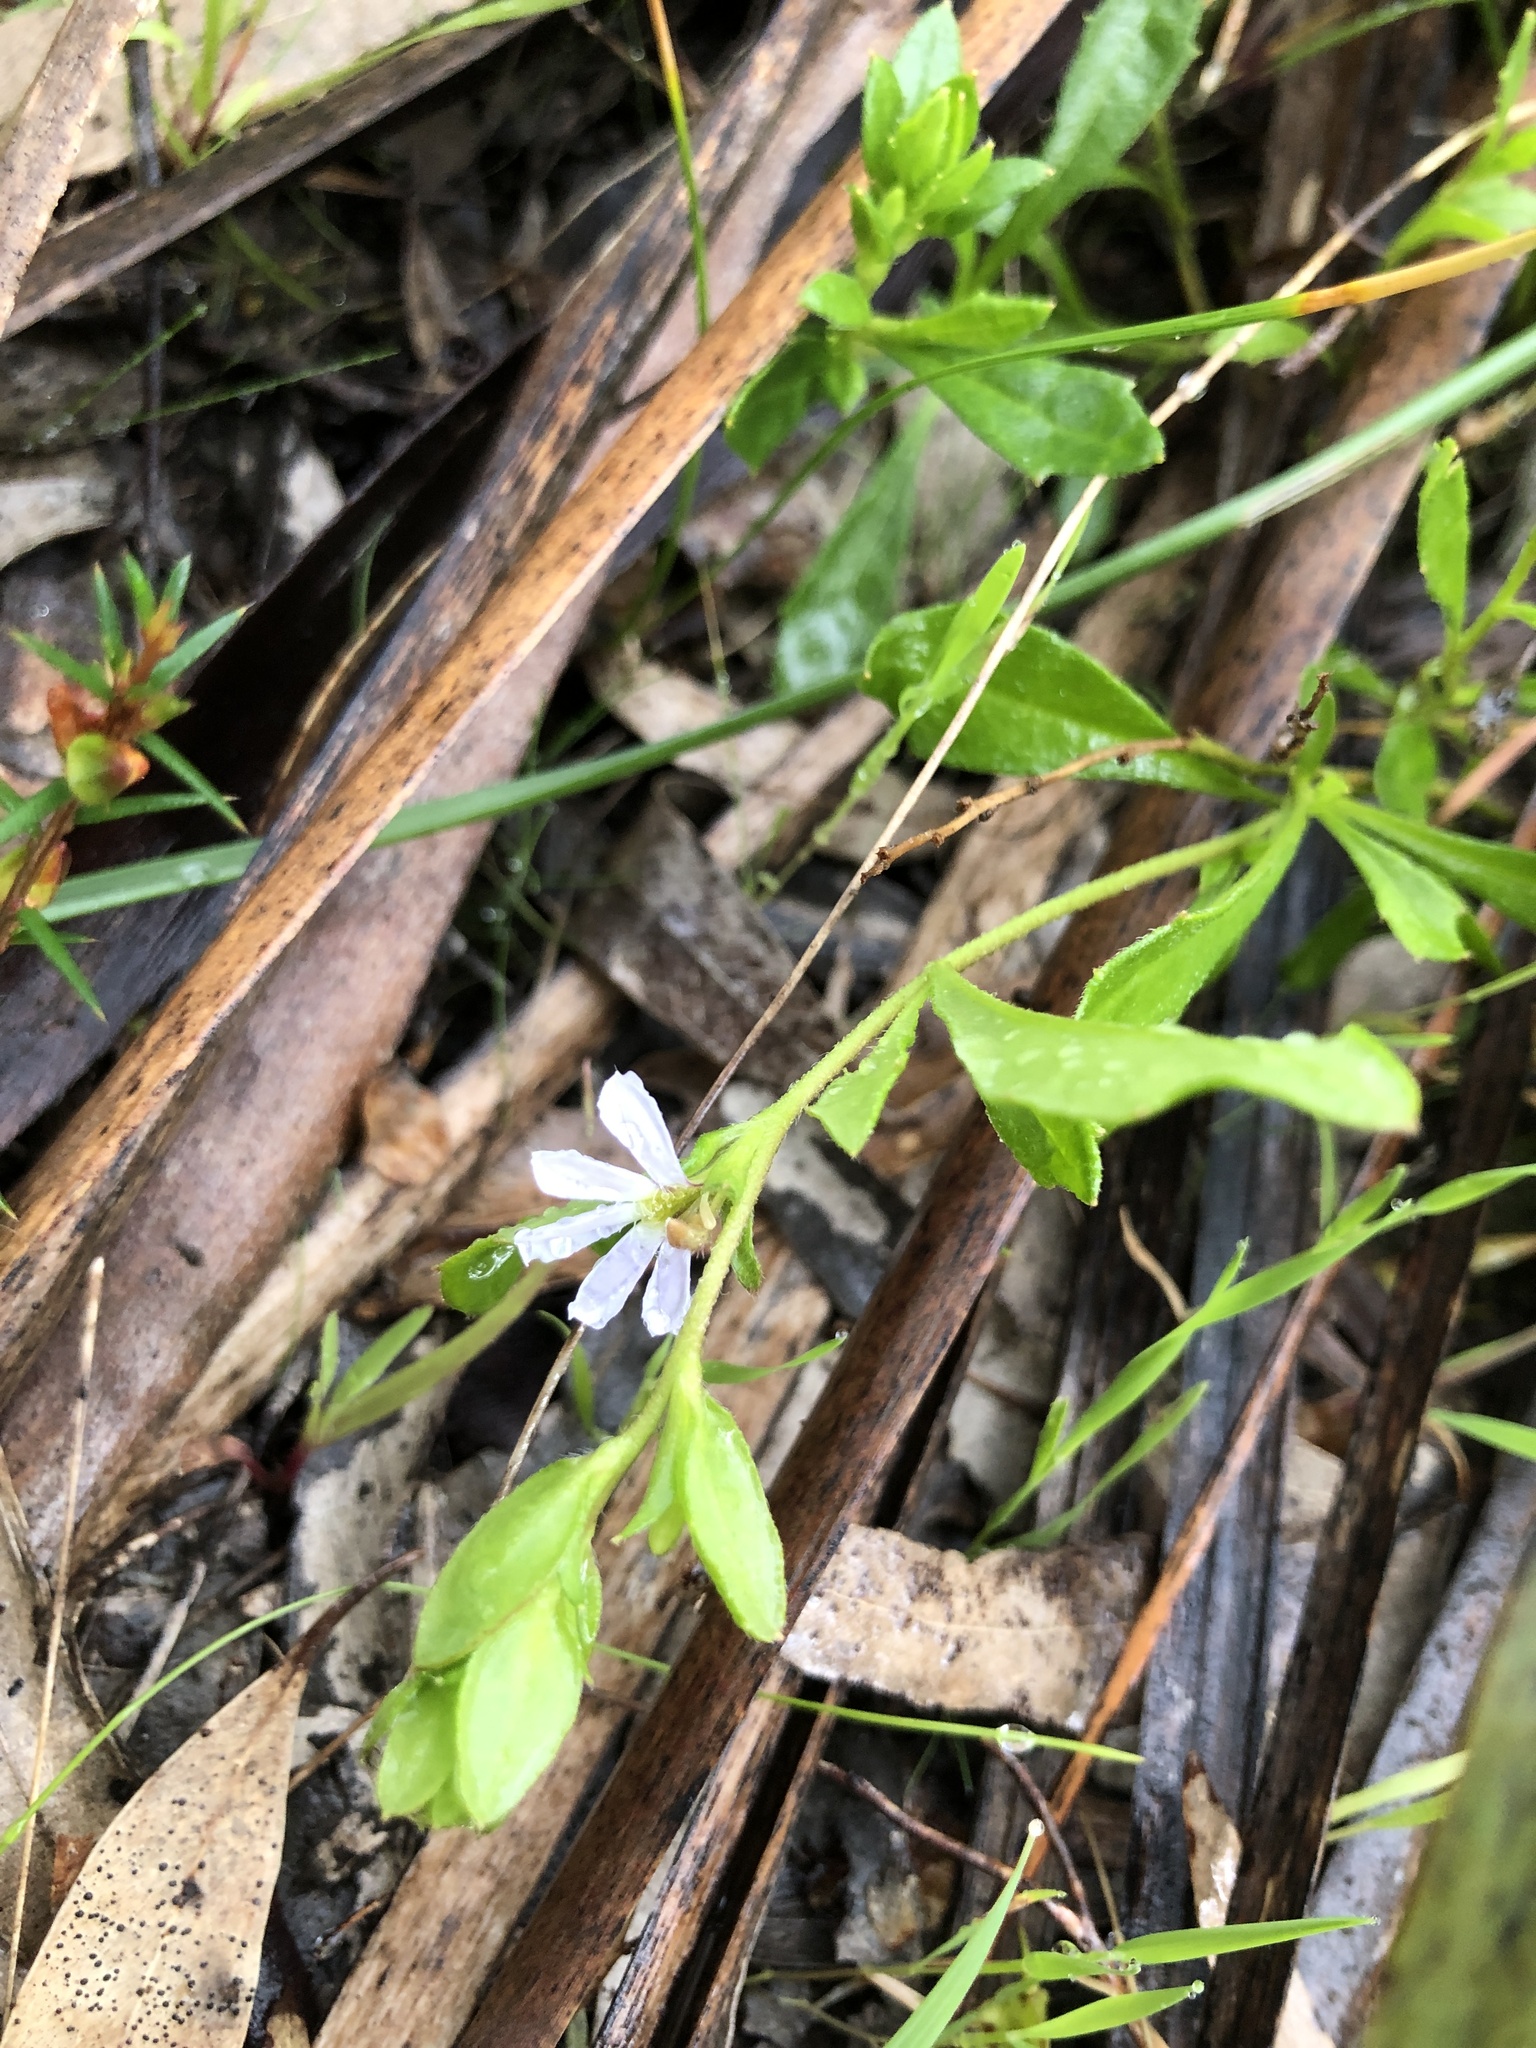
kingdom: Plantae
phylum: Tracheophyta
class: Magnoliopsida
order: Asterales
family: Goodeniaceae
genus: Scaevola
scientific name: Scaevola albida
